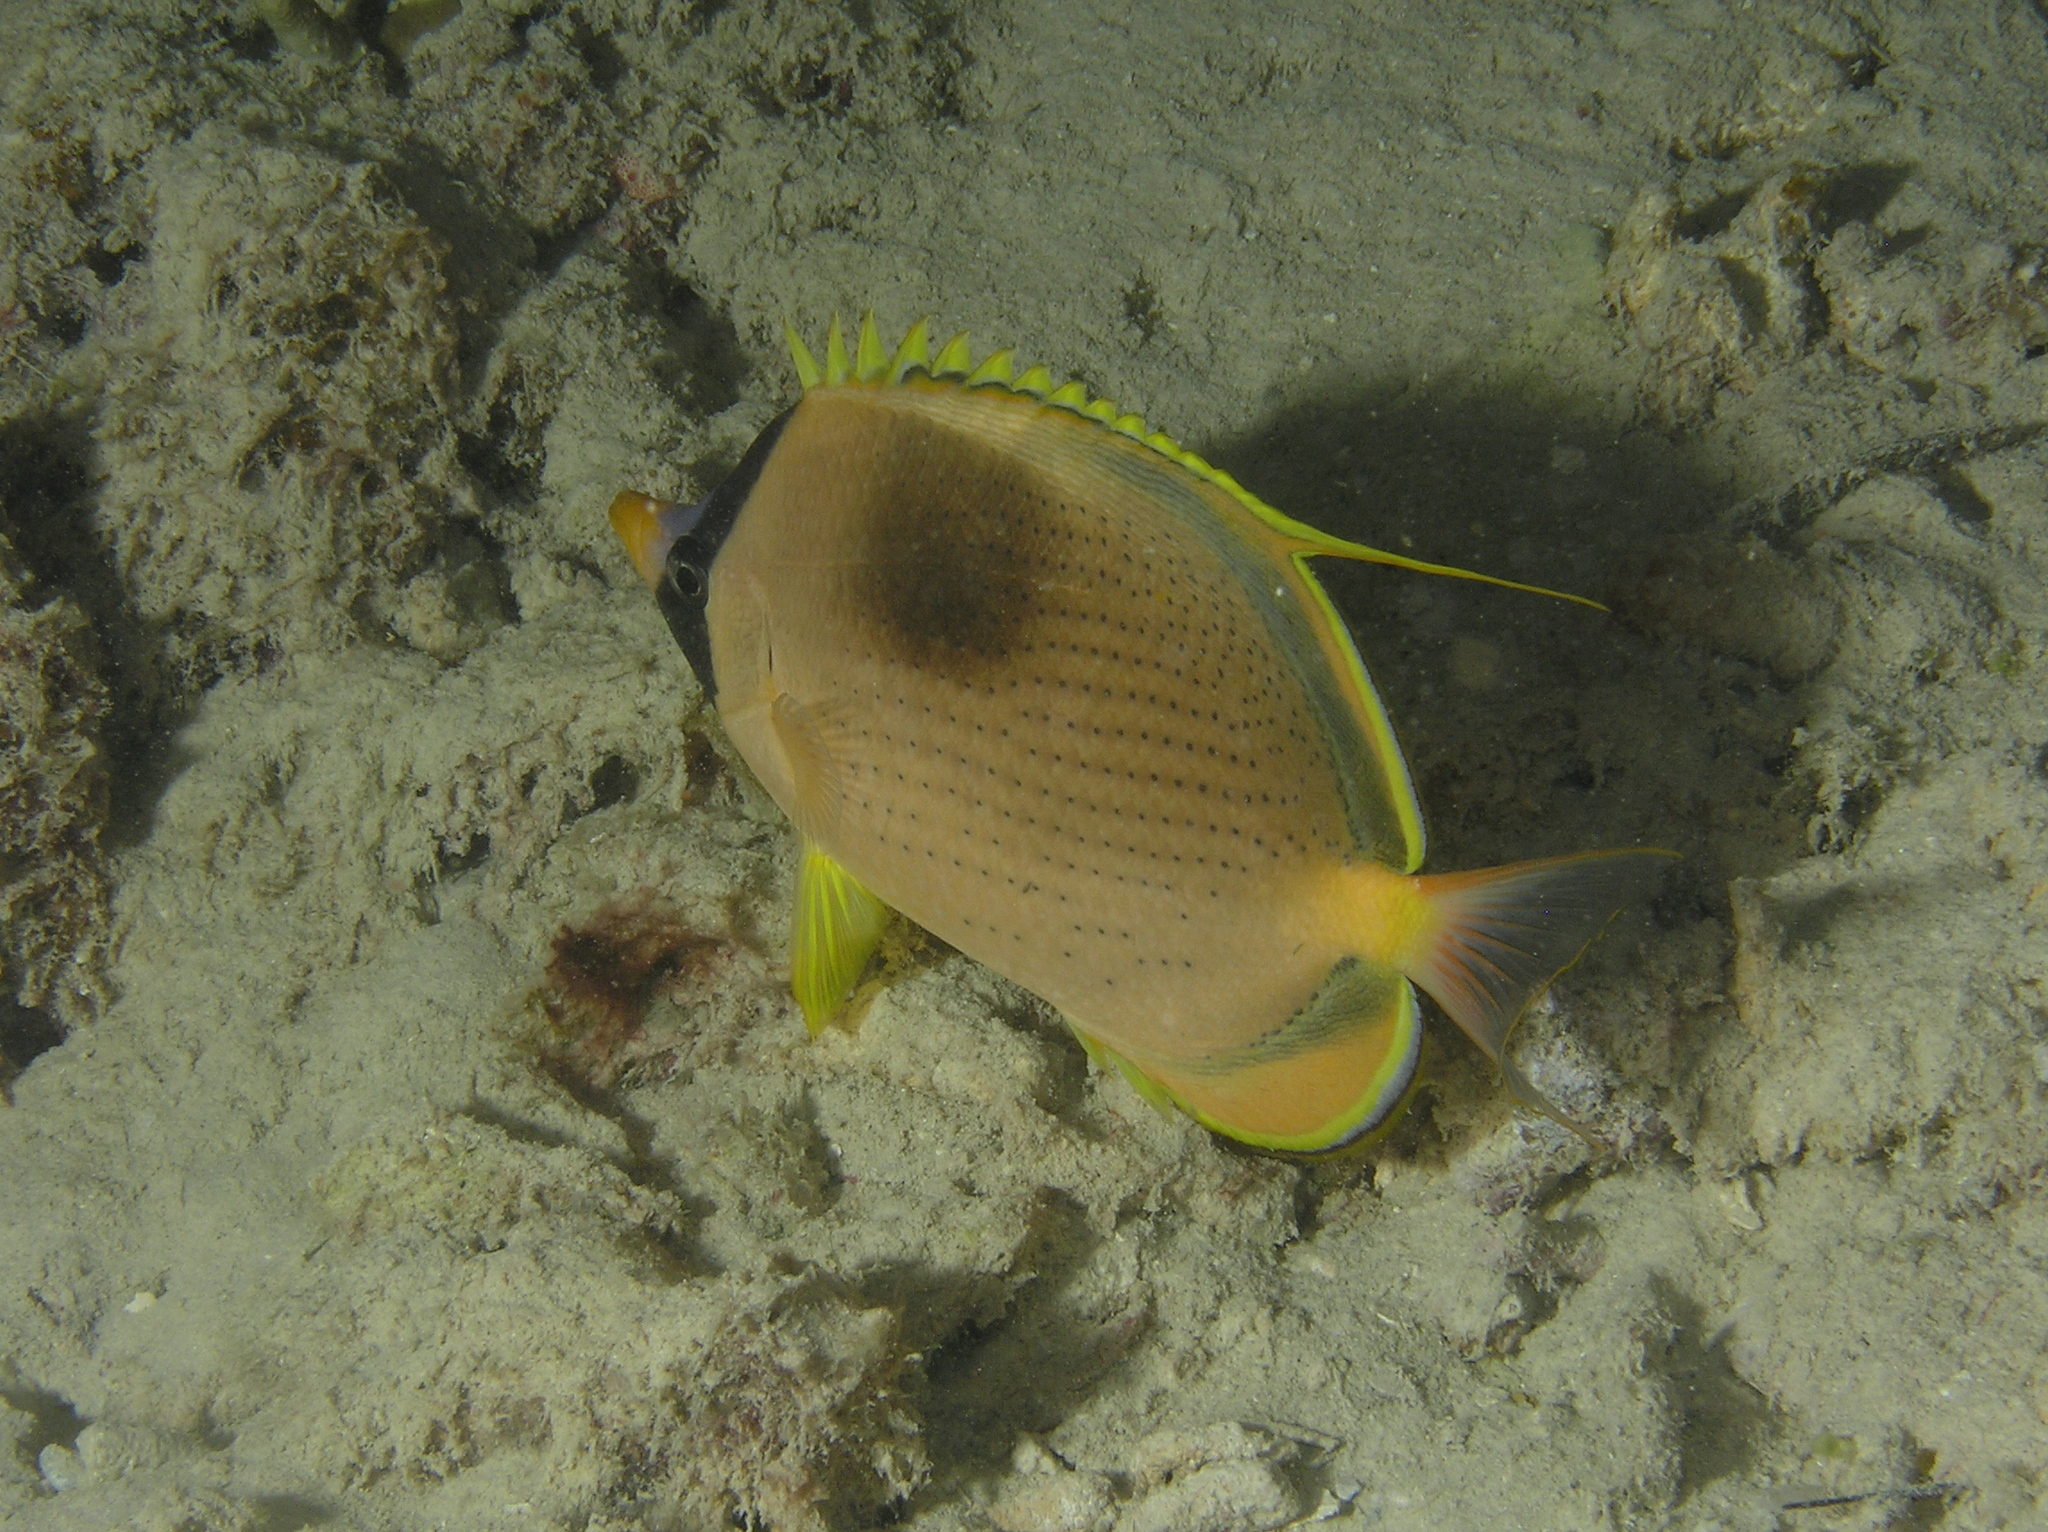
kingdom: Animalia
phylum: Chordata
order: Perciformes
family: Chaetodontidae
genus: Chaetodon
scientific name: Chaetodon semeion
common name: Dotted butterflyfish
